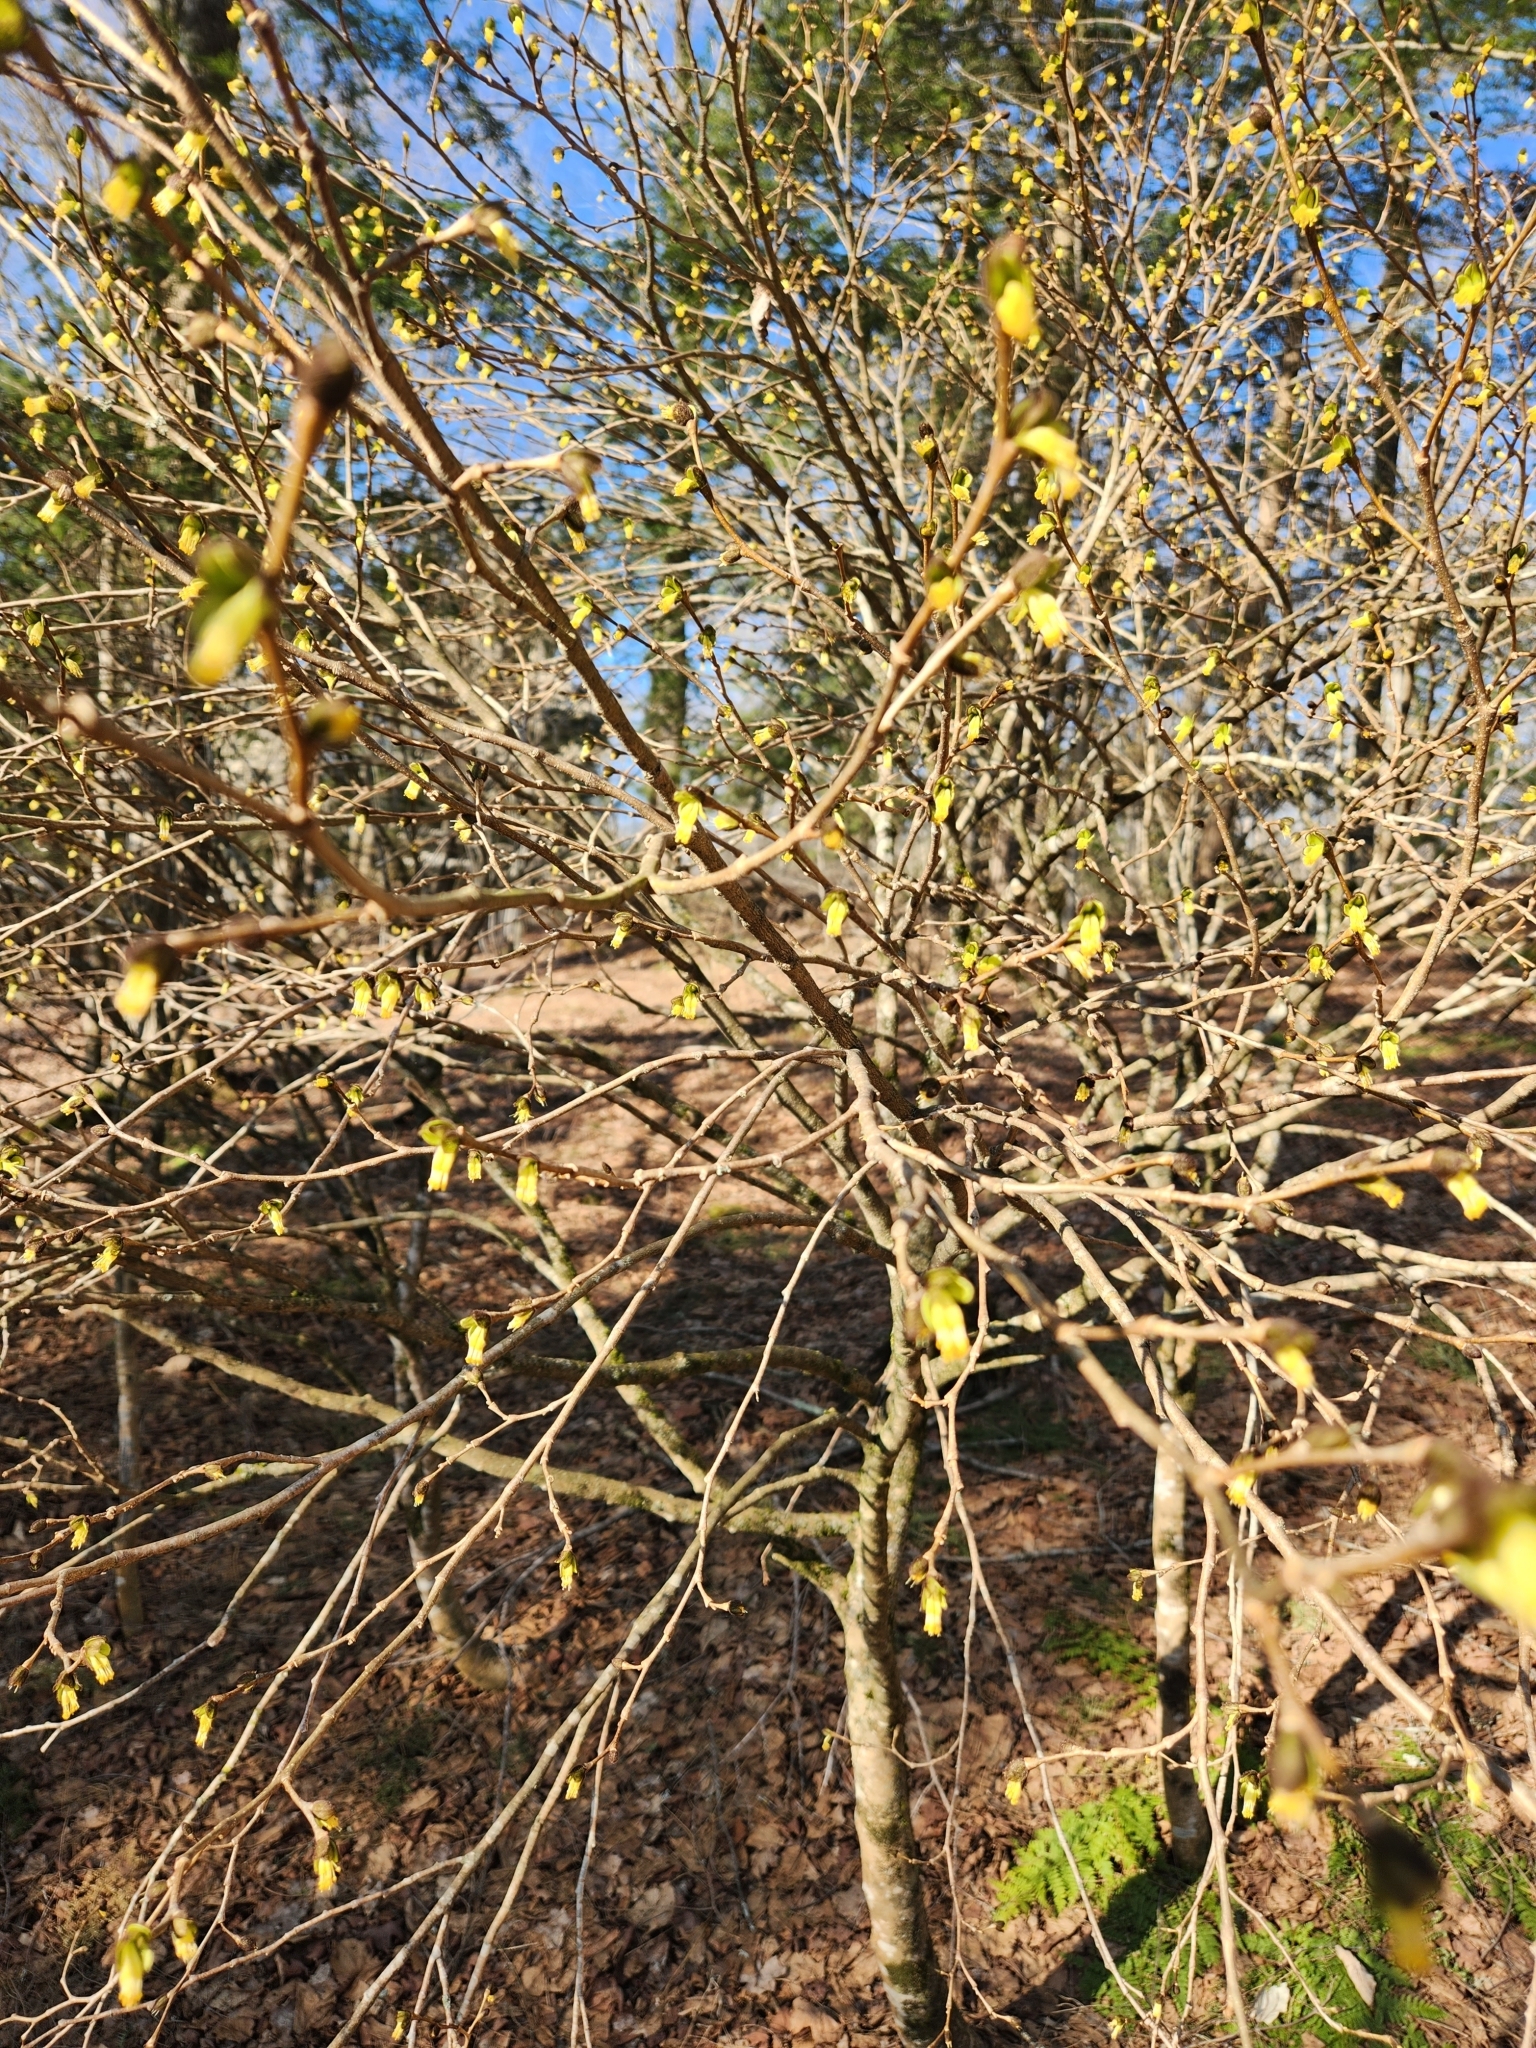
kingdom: Plantae
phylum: Tracheophyta
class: Magnoliopsida
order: Malvales
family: Thymelaeaceae
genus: Dirca
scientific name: Dirca palustris
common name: Leatherwood
